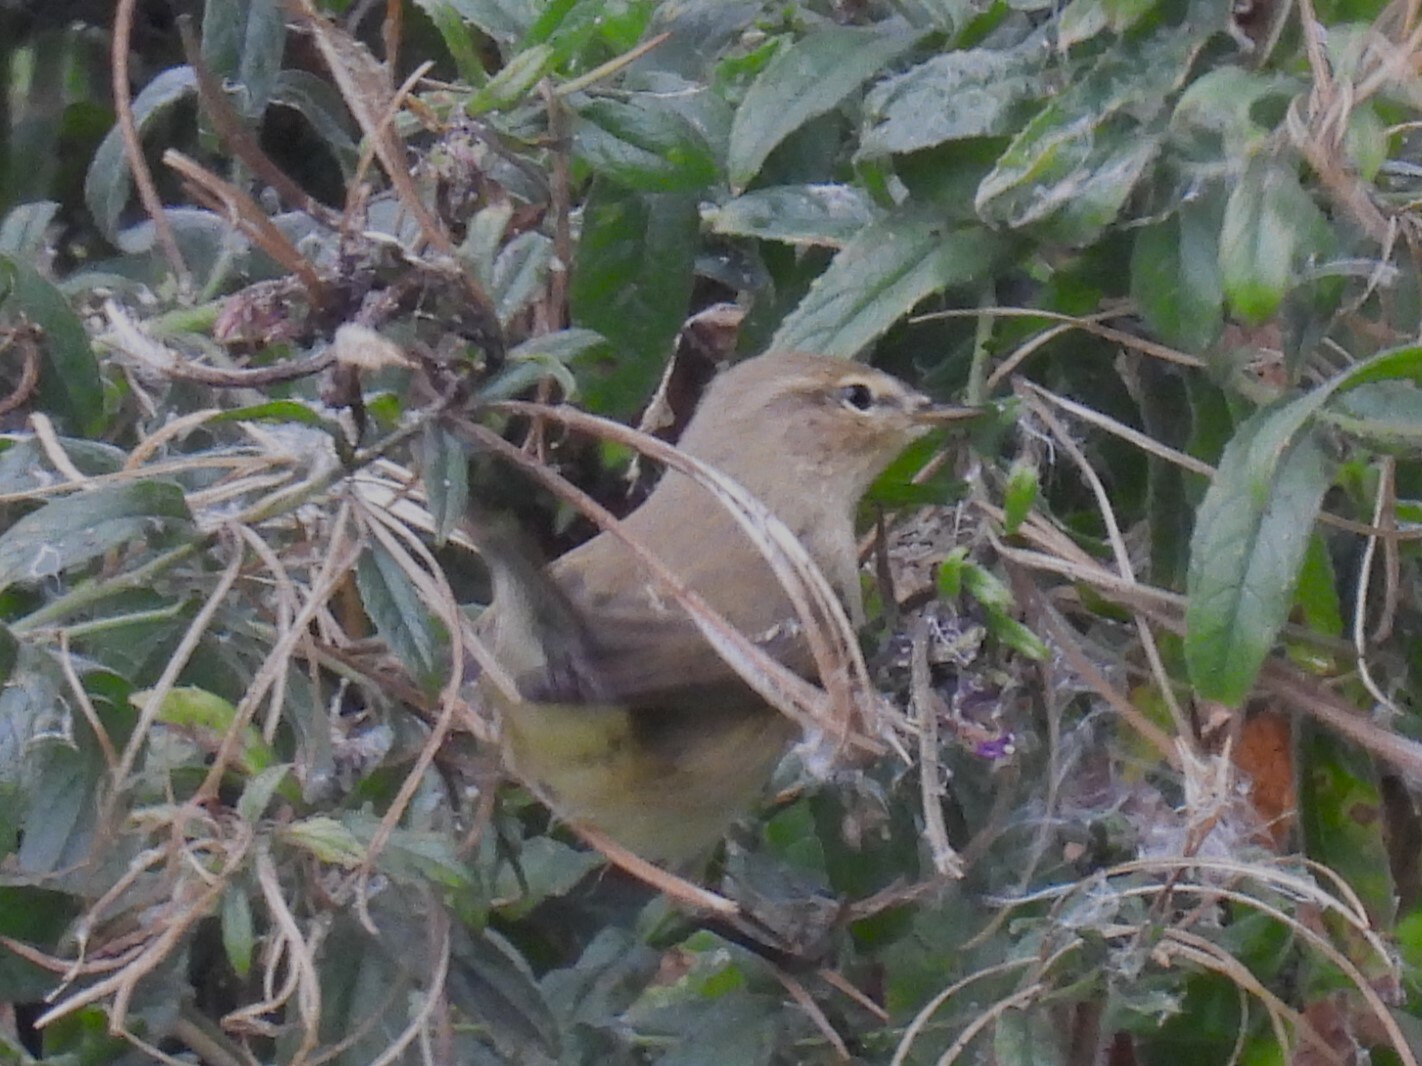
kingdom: Animalia
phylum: Chordata
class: Aves
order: Passeriformes
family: Phylloscopidae
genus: Phylloscopus
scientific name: Phylloscopus collybita
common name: Common chiffchaff
